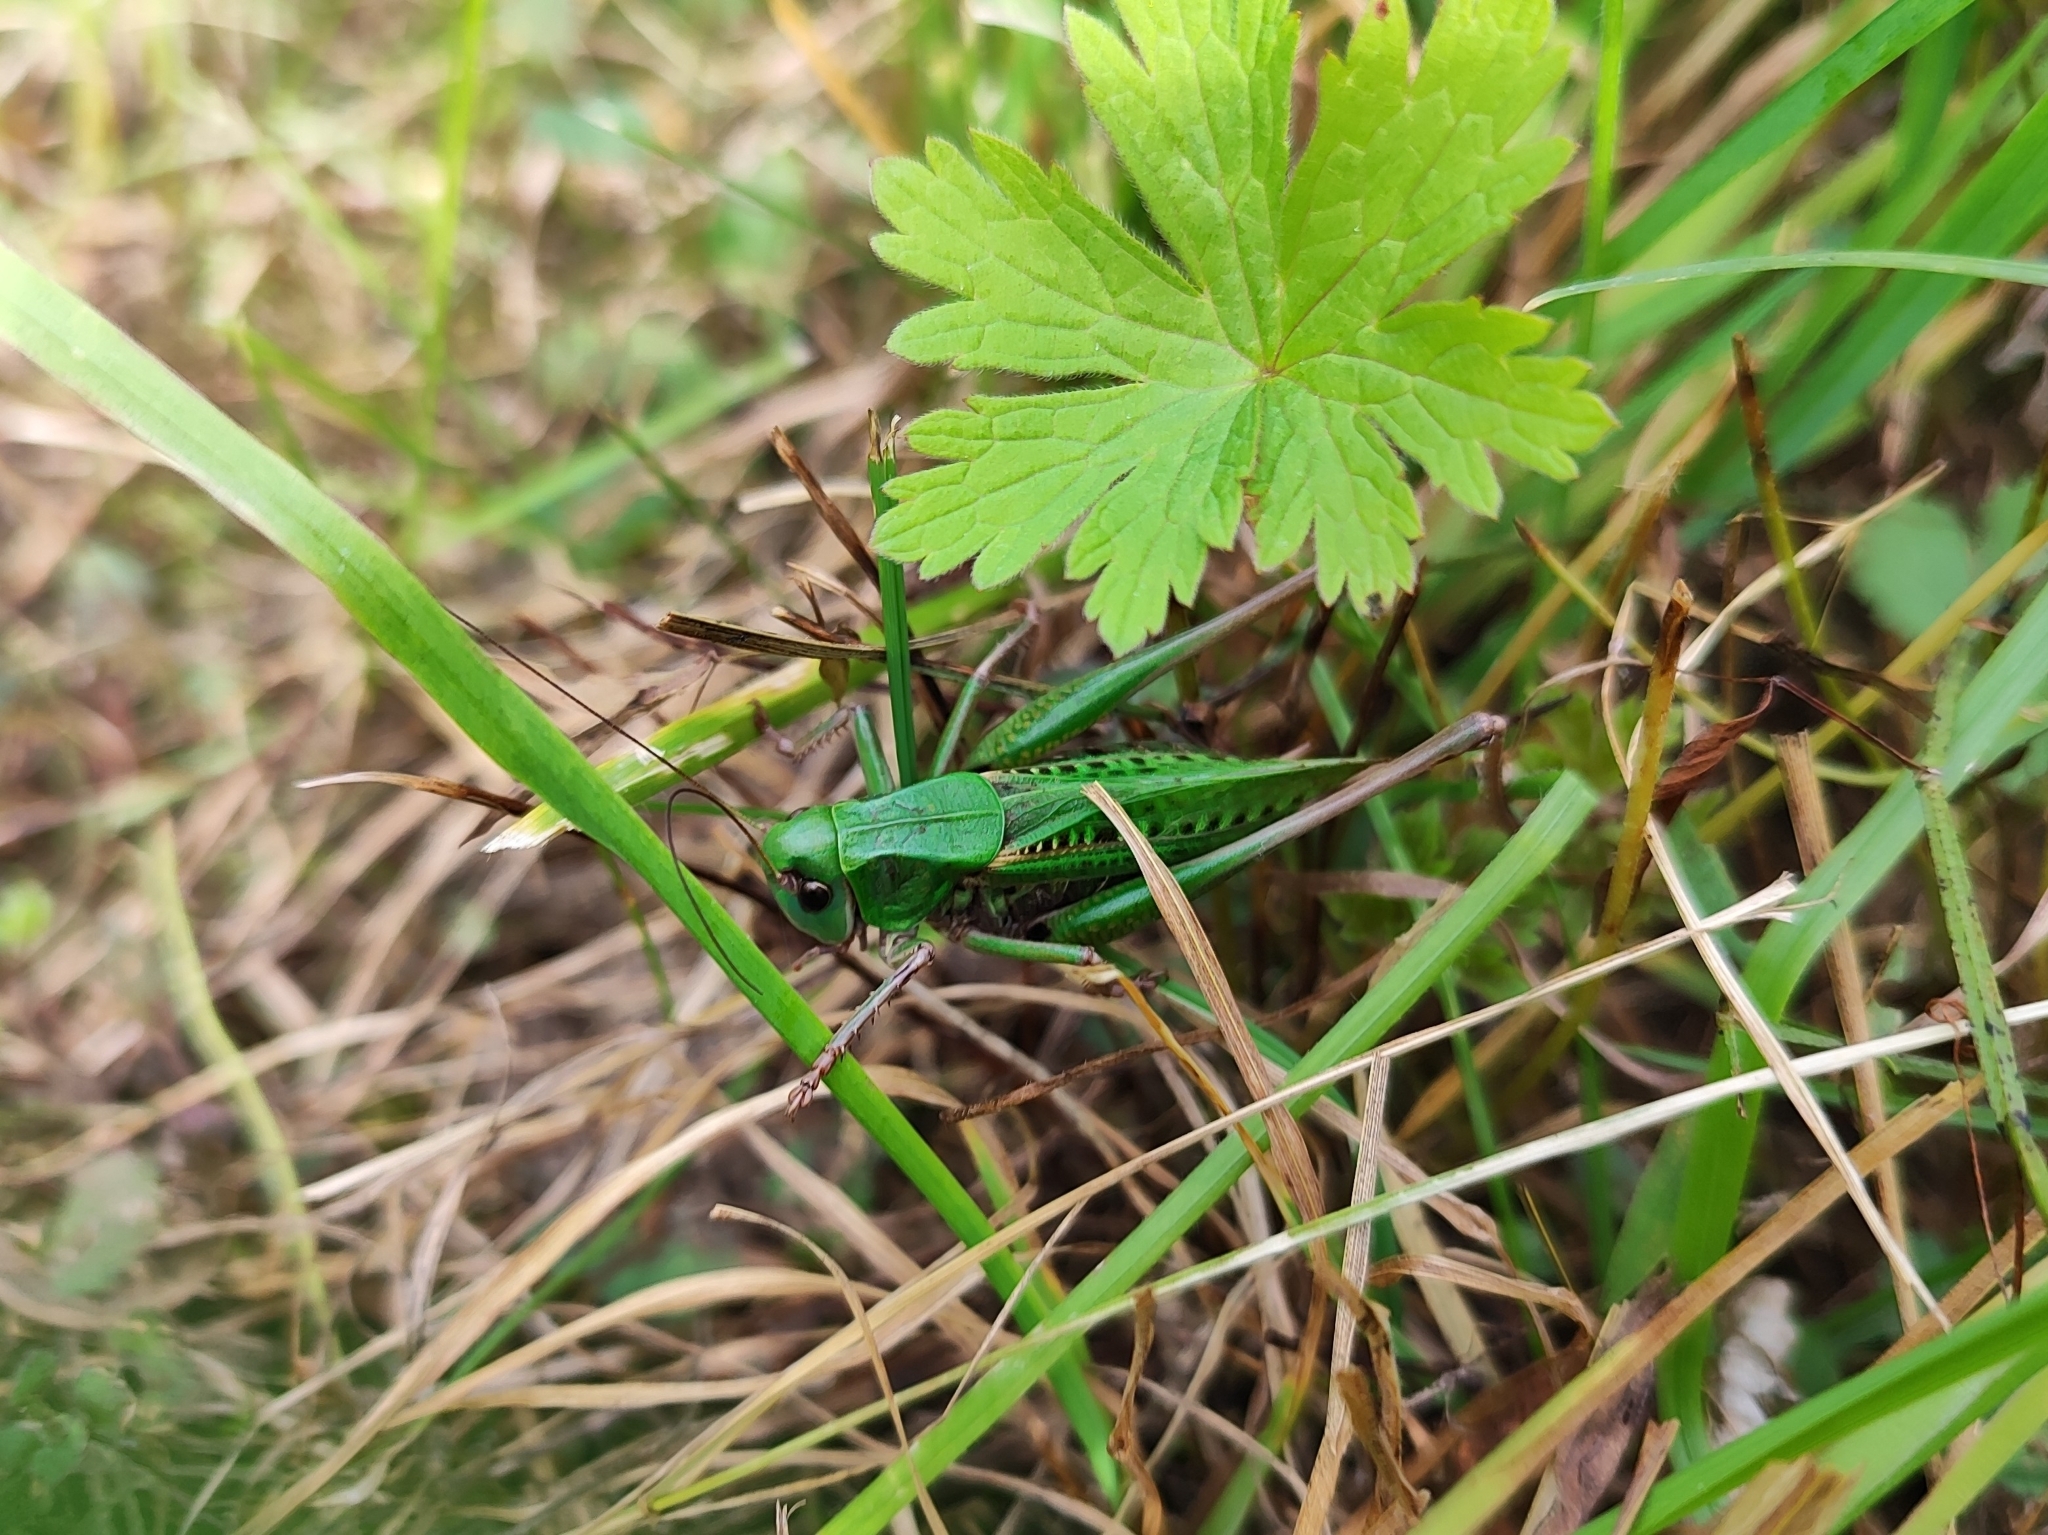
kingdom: Animalia
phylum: Arthropoda
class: Insecta
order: Orthoptera
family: Tettigoniidae
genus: Decticus
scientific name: Decticus verrucivorus
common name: Wart-biter
